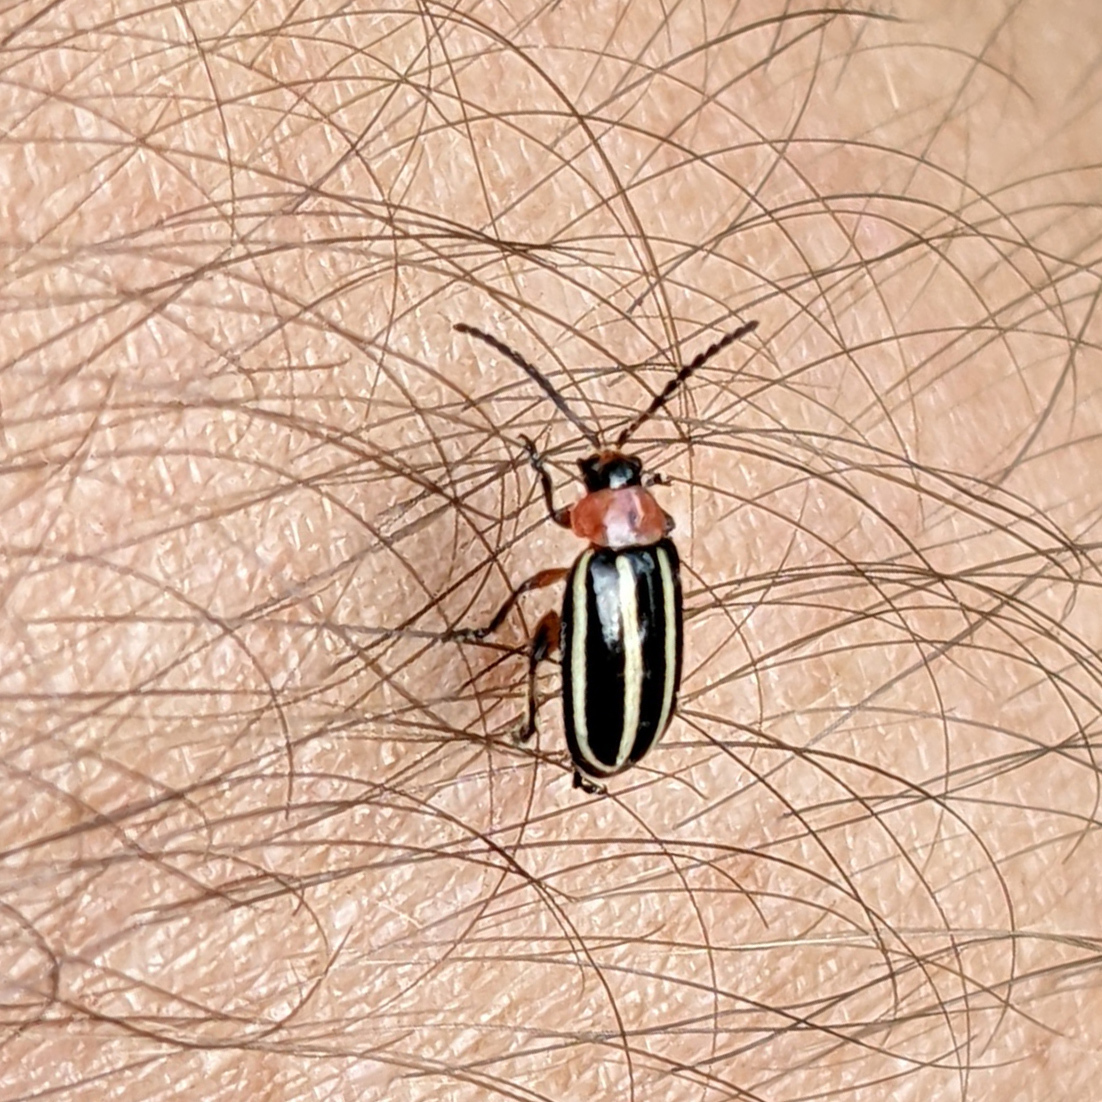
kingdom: Animalia
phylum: Arthropoda
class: Insecta
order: Coleoptera
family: Chrysomelidae
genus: Disonycha
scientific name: Disonycha glabrata
